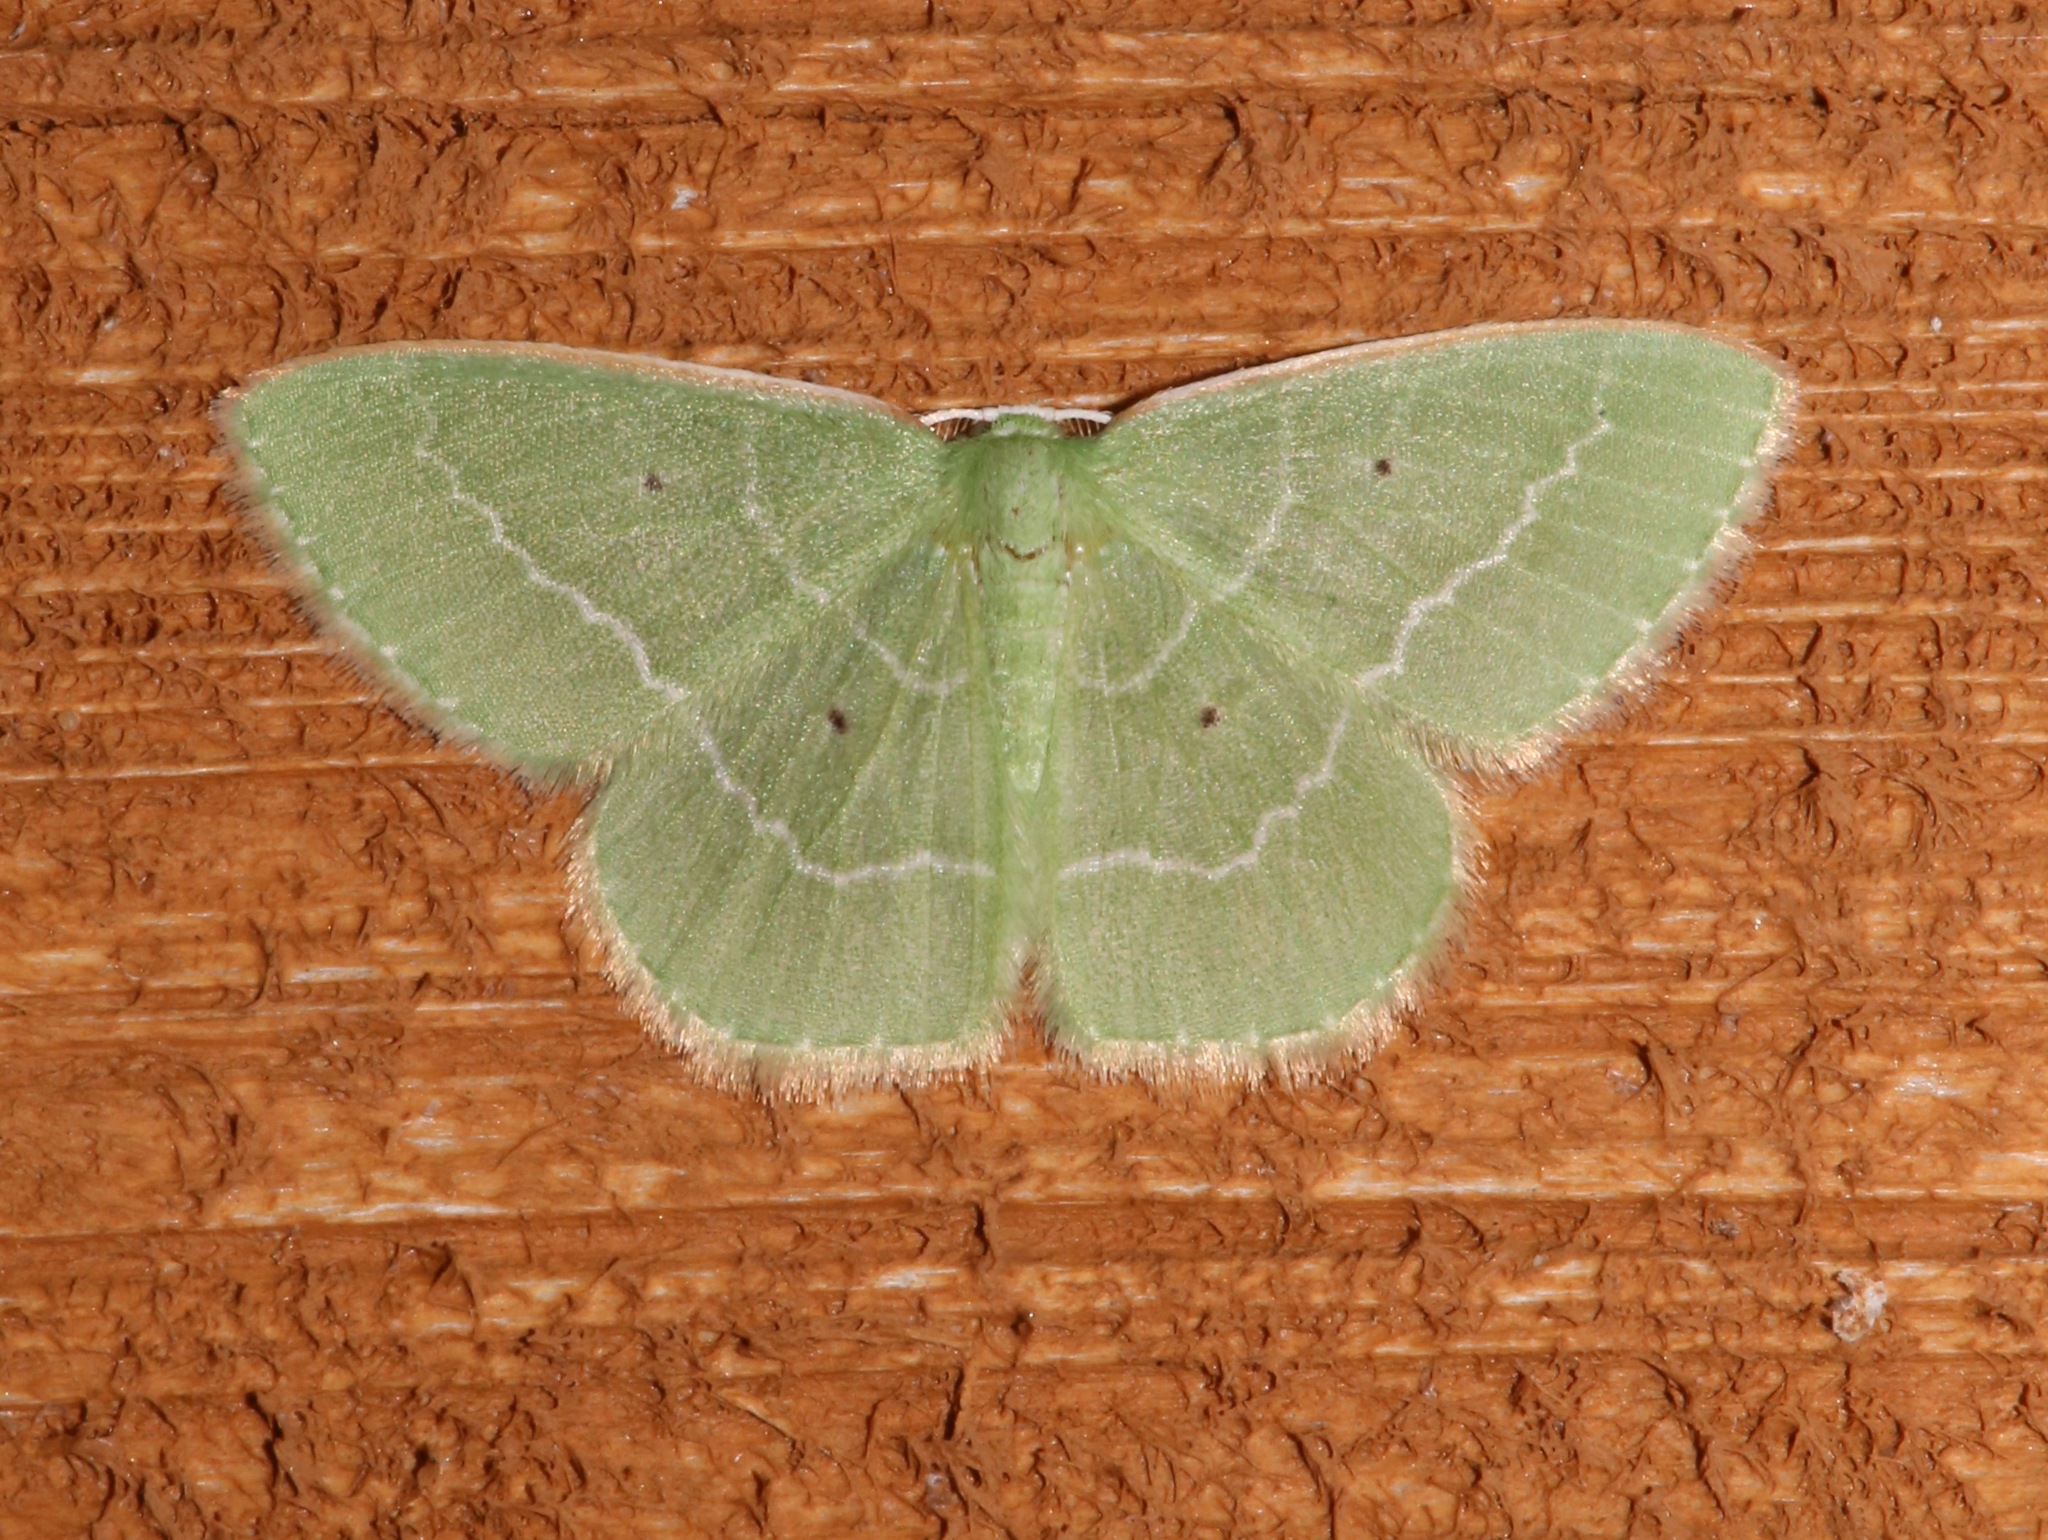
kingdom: Animalia
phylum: Arthropoda
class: Insecta
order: Lepidoptera
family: Geometridae
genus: Nemoria
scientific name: Nemoria elfa
